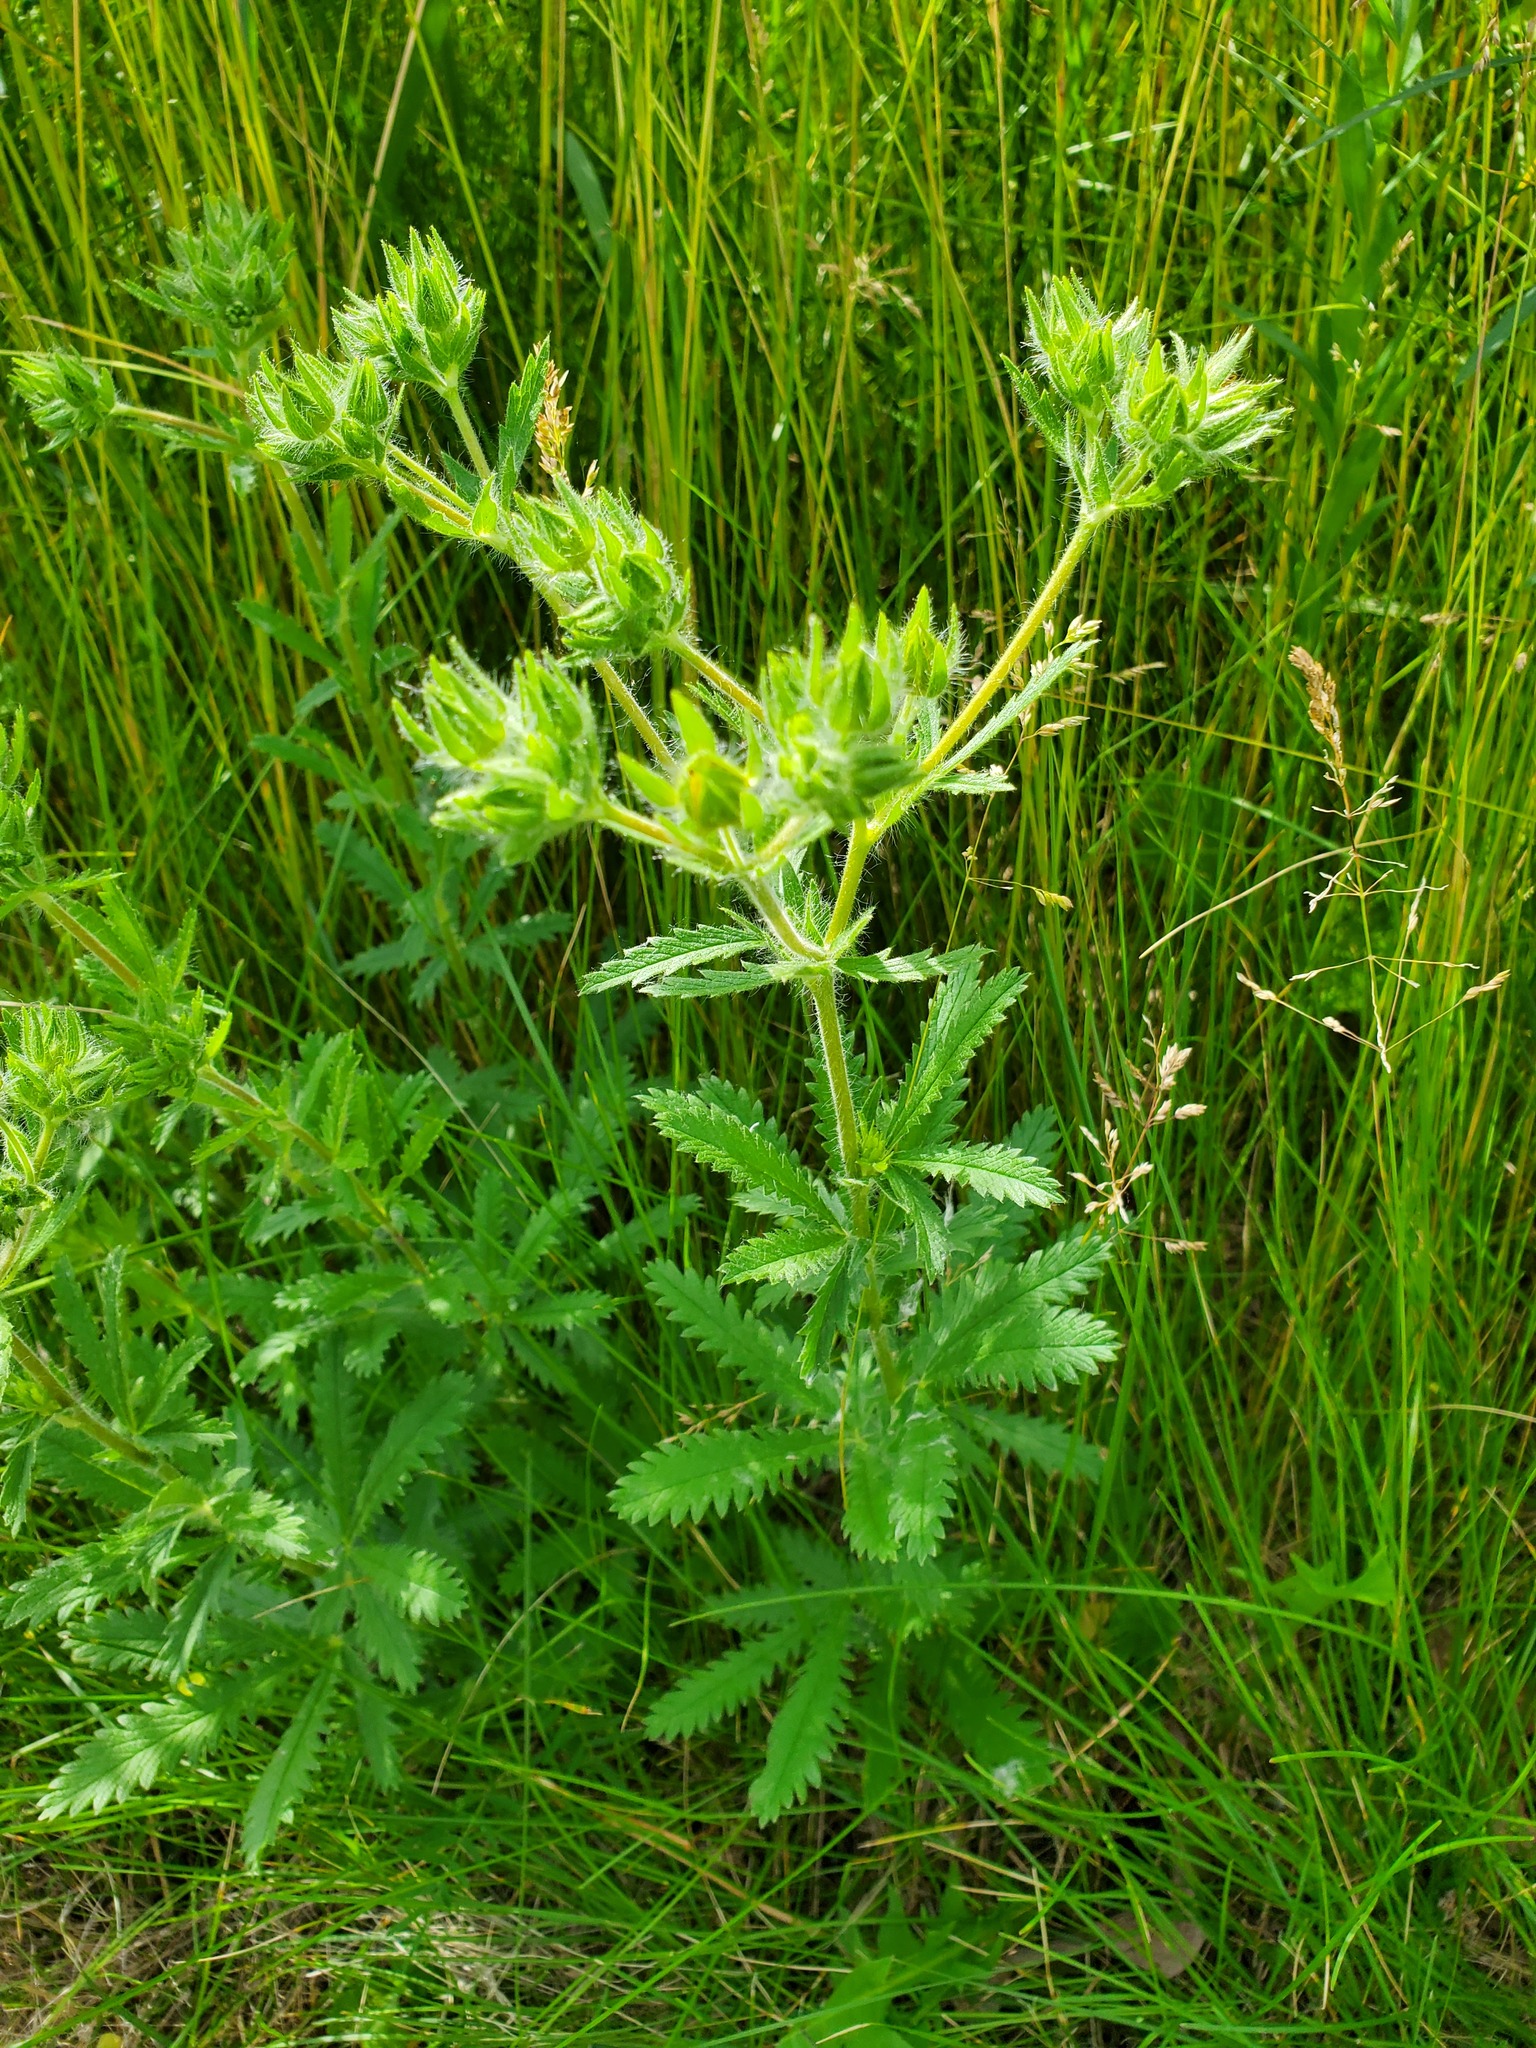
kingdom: Plantae
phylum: Tracheophyta
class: Magnoliopsida
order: Rosales
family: Rosaceae
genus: Potentilla
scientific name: Potentilla recta
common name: Sulphur cinquefoil
